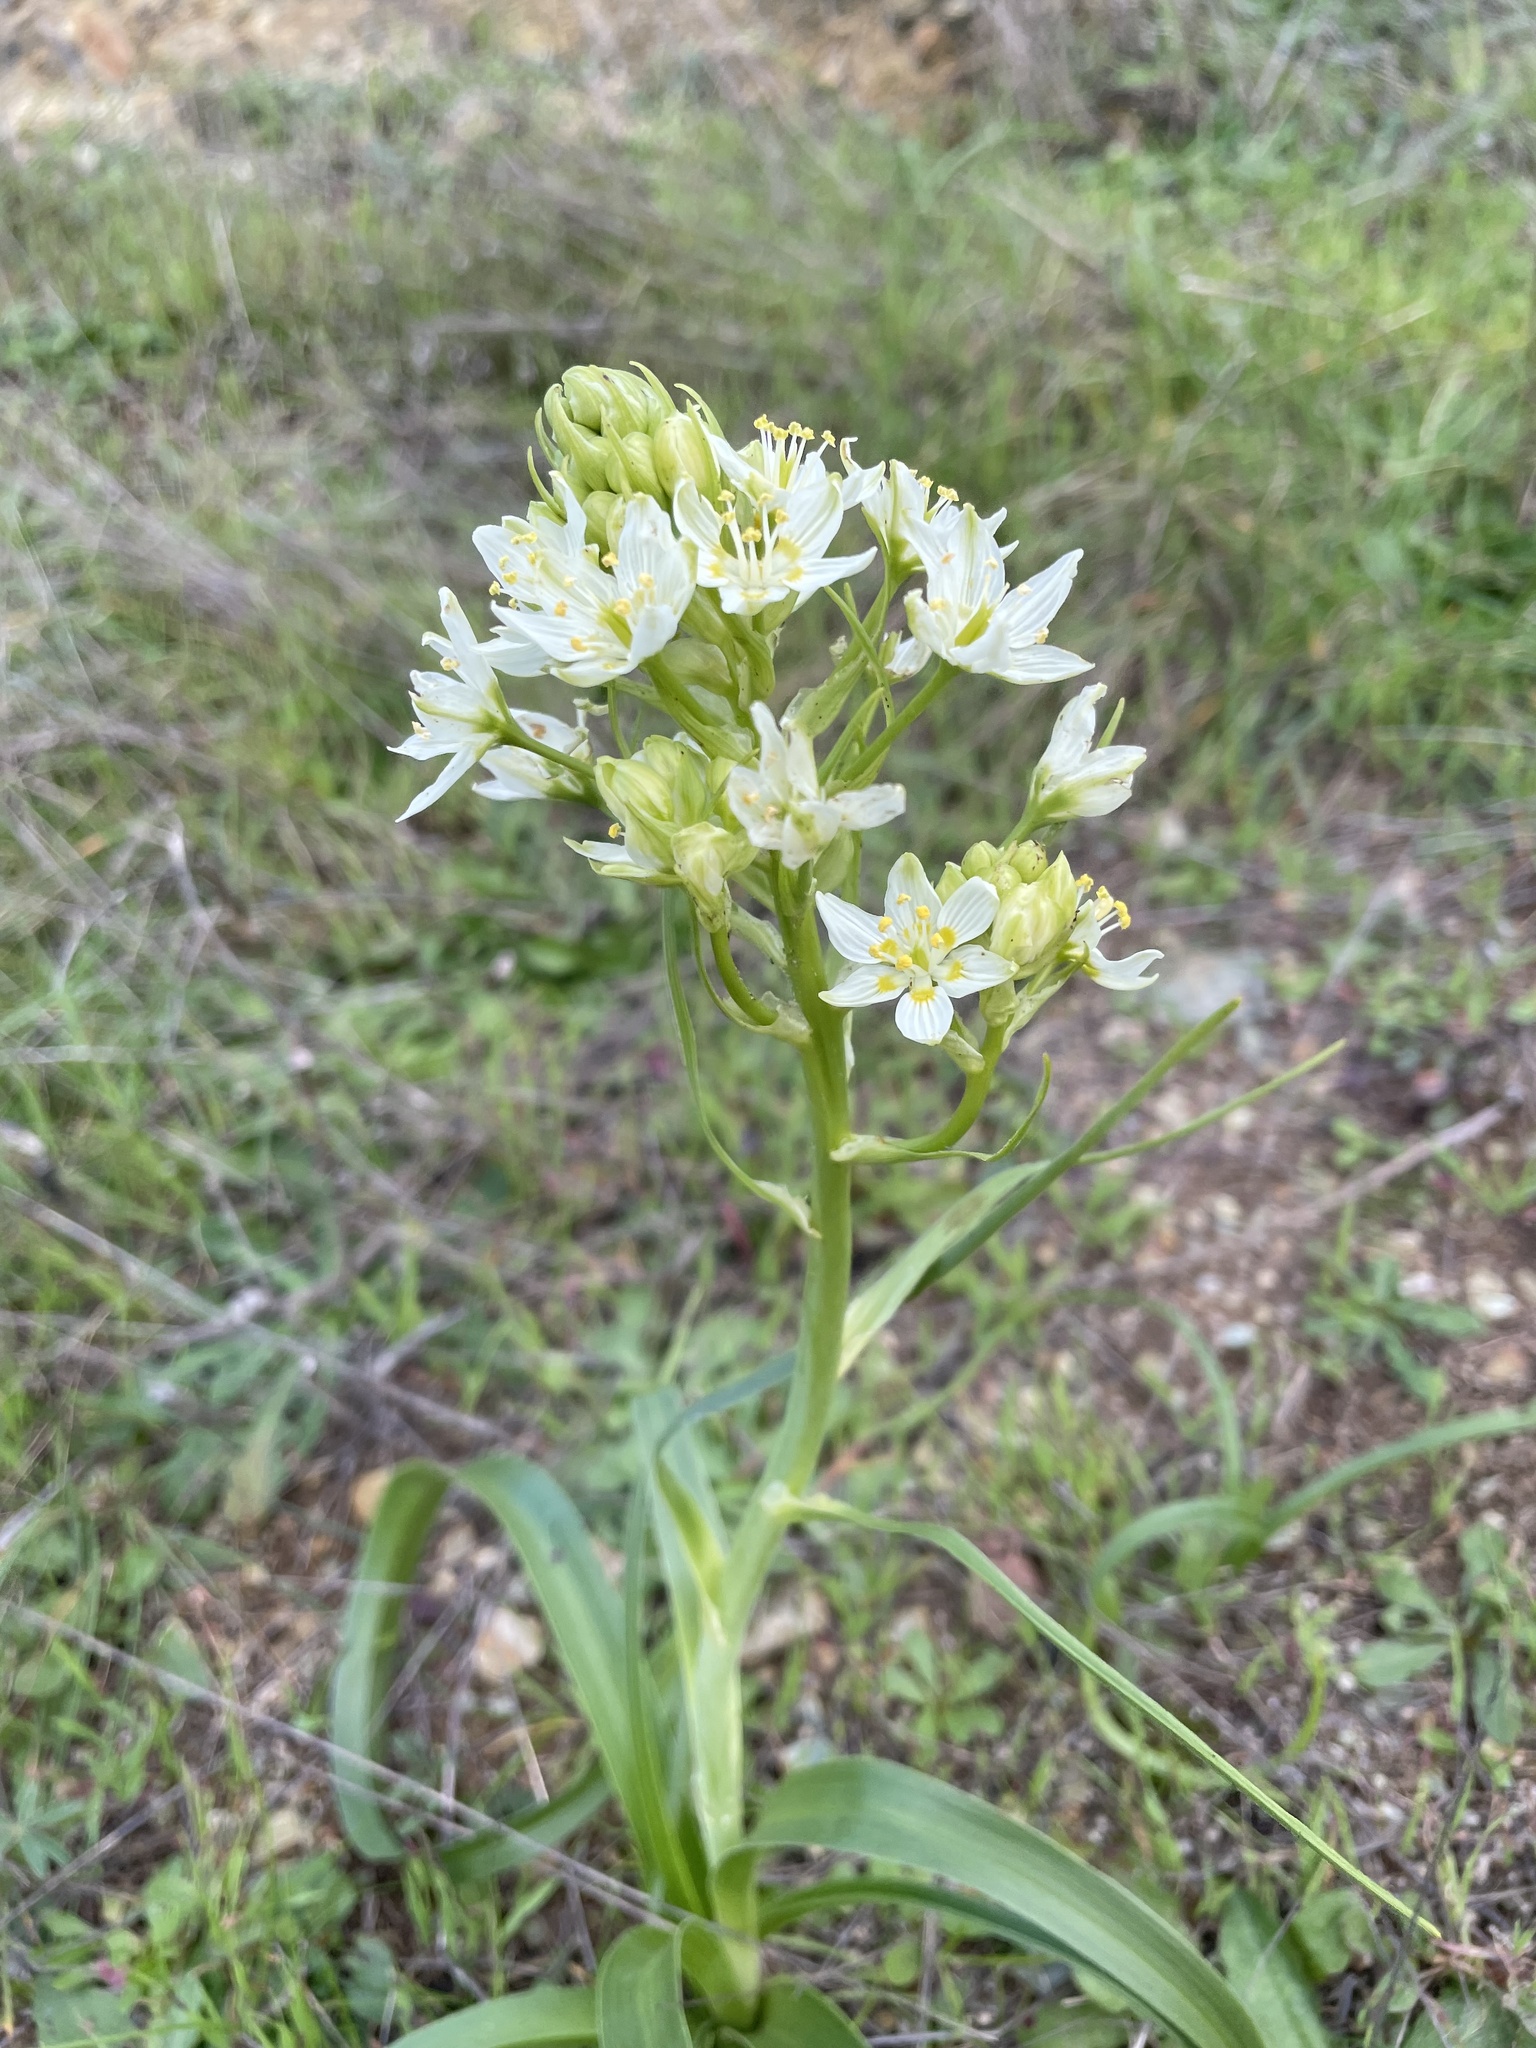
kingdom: Plantae
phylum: Tracheophyta
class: Liliopsida
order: Liliales
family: Melanthiaceae
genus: Toxicoscordion
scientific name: Toxicoscordion fremontii
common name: Fremont's death camas
